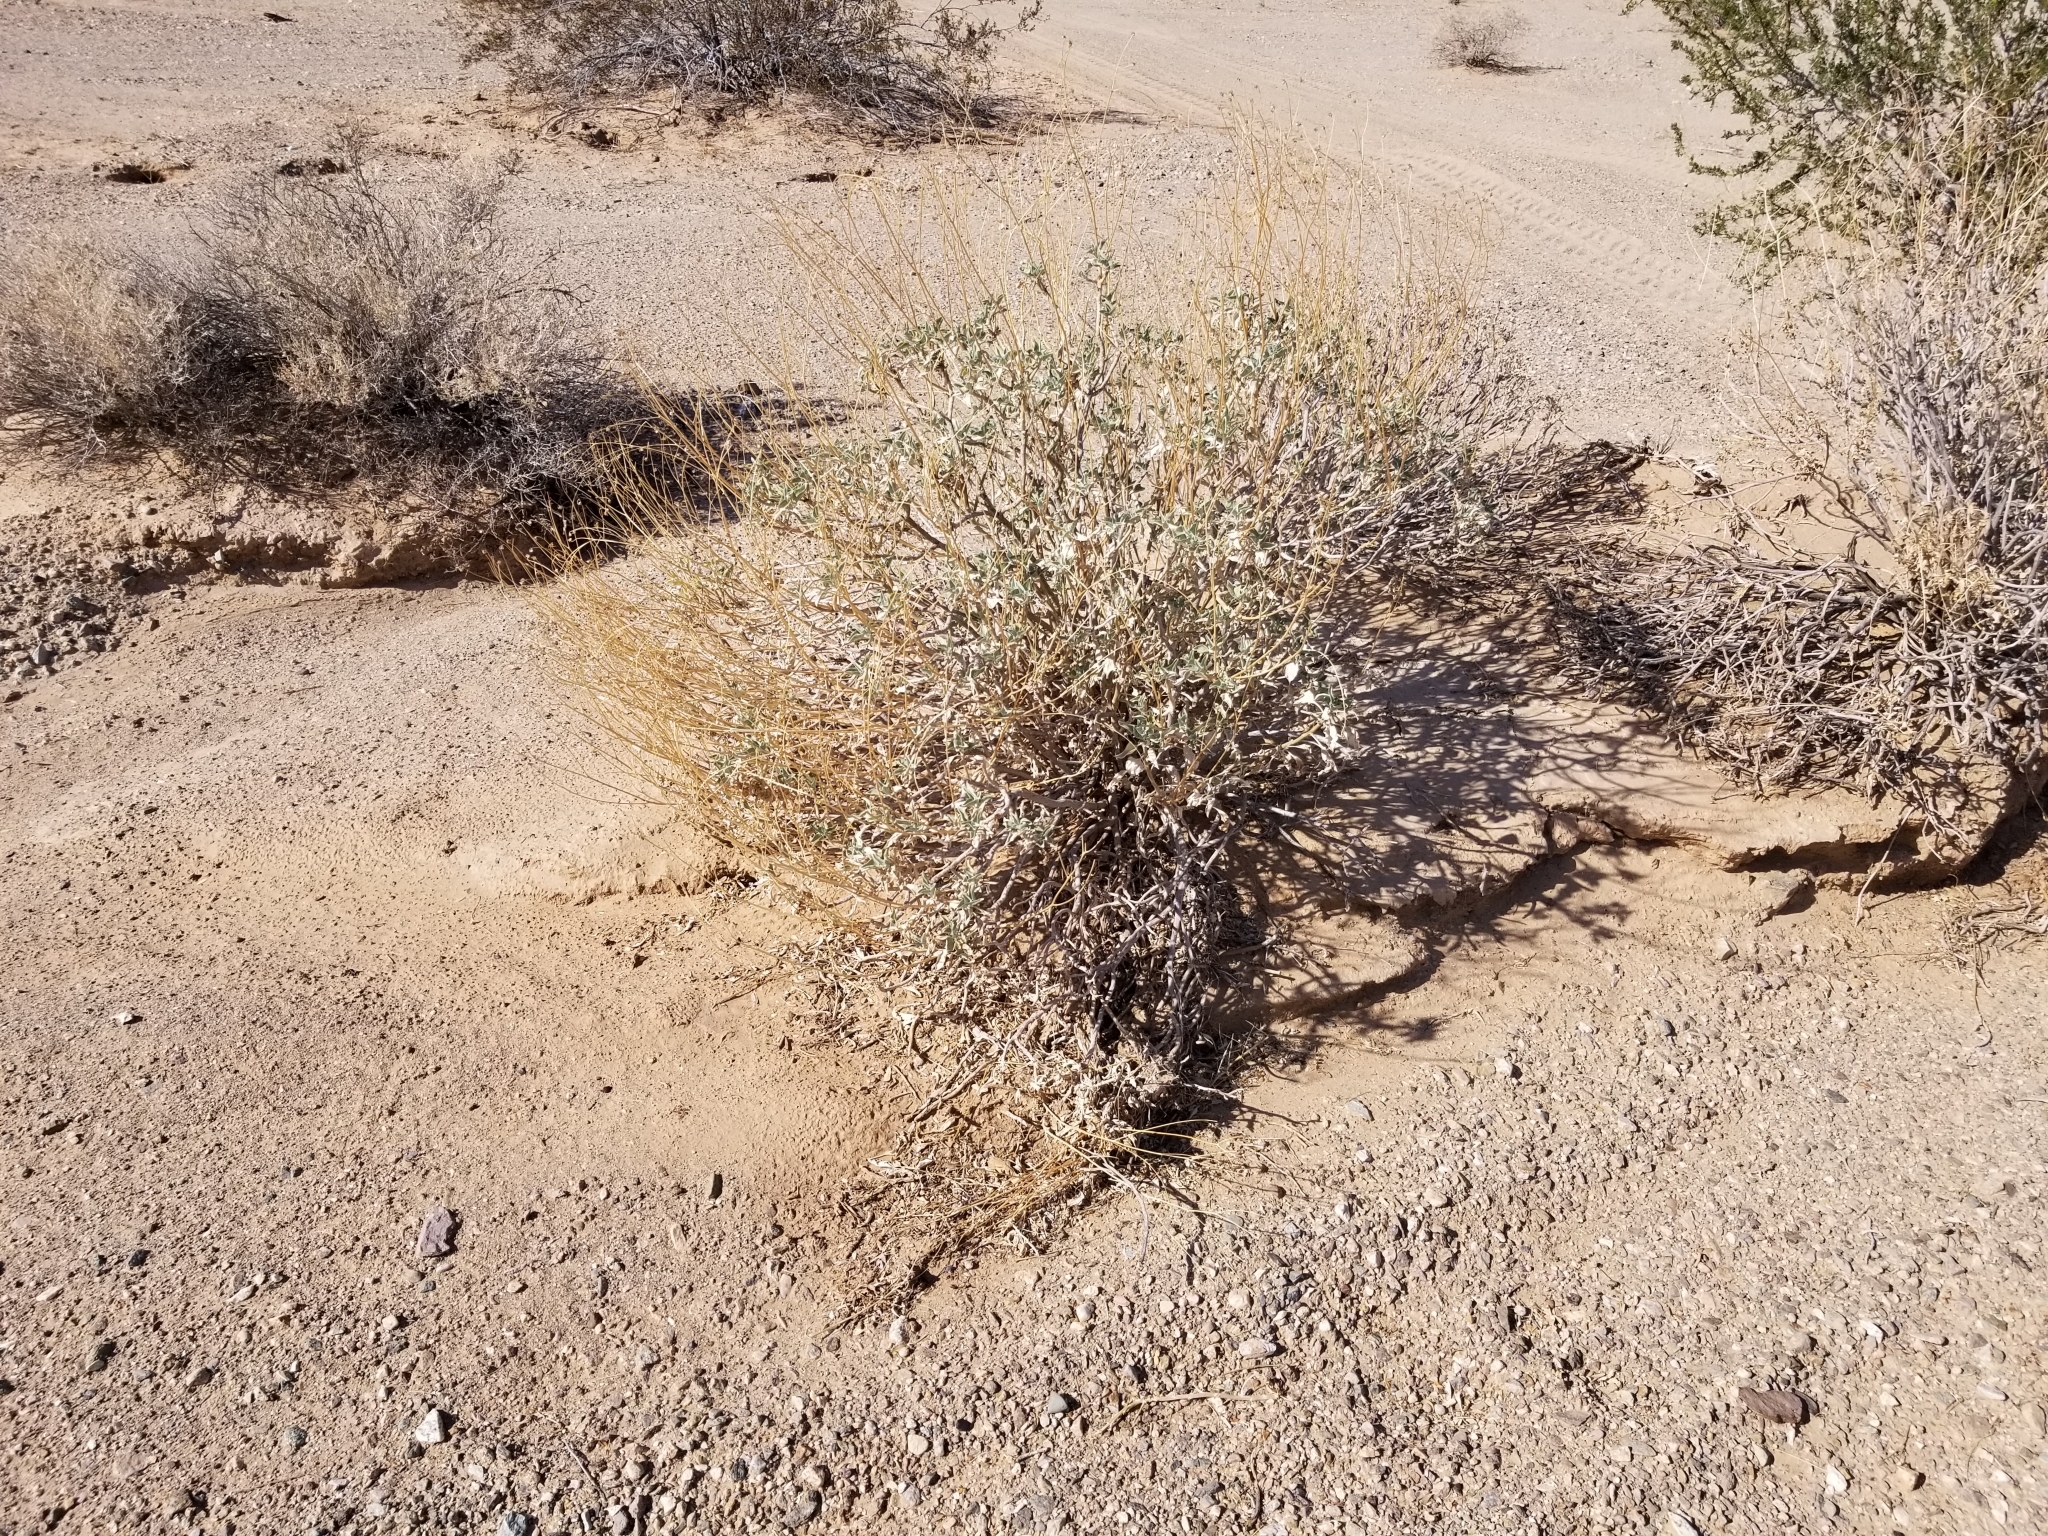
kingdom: Plantae
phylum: Tracheophyta
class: Magnoliopsida
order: Asterales
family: Asteraceae
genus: Encelia
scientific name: Encelia farinosa
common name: Brittlebush
